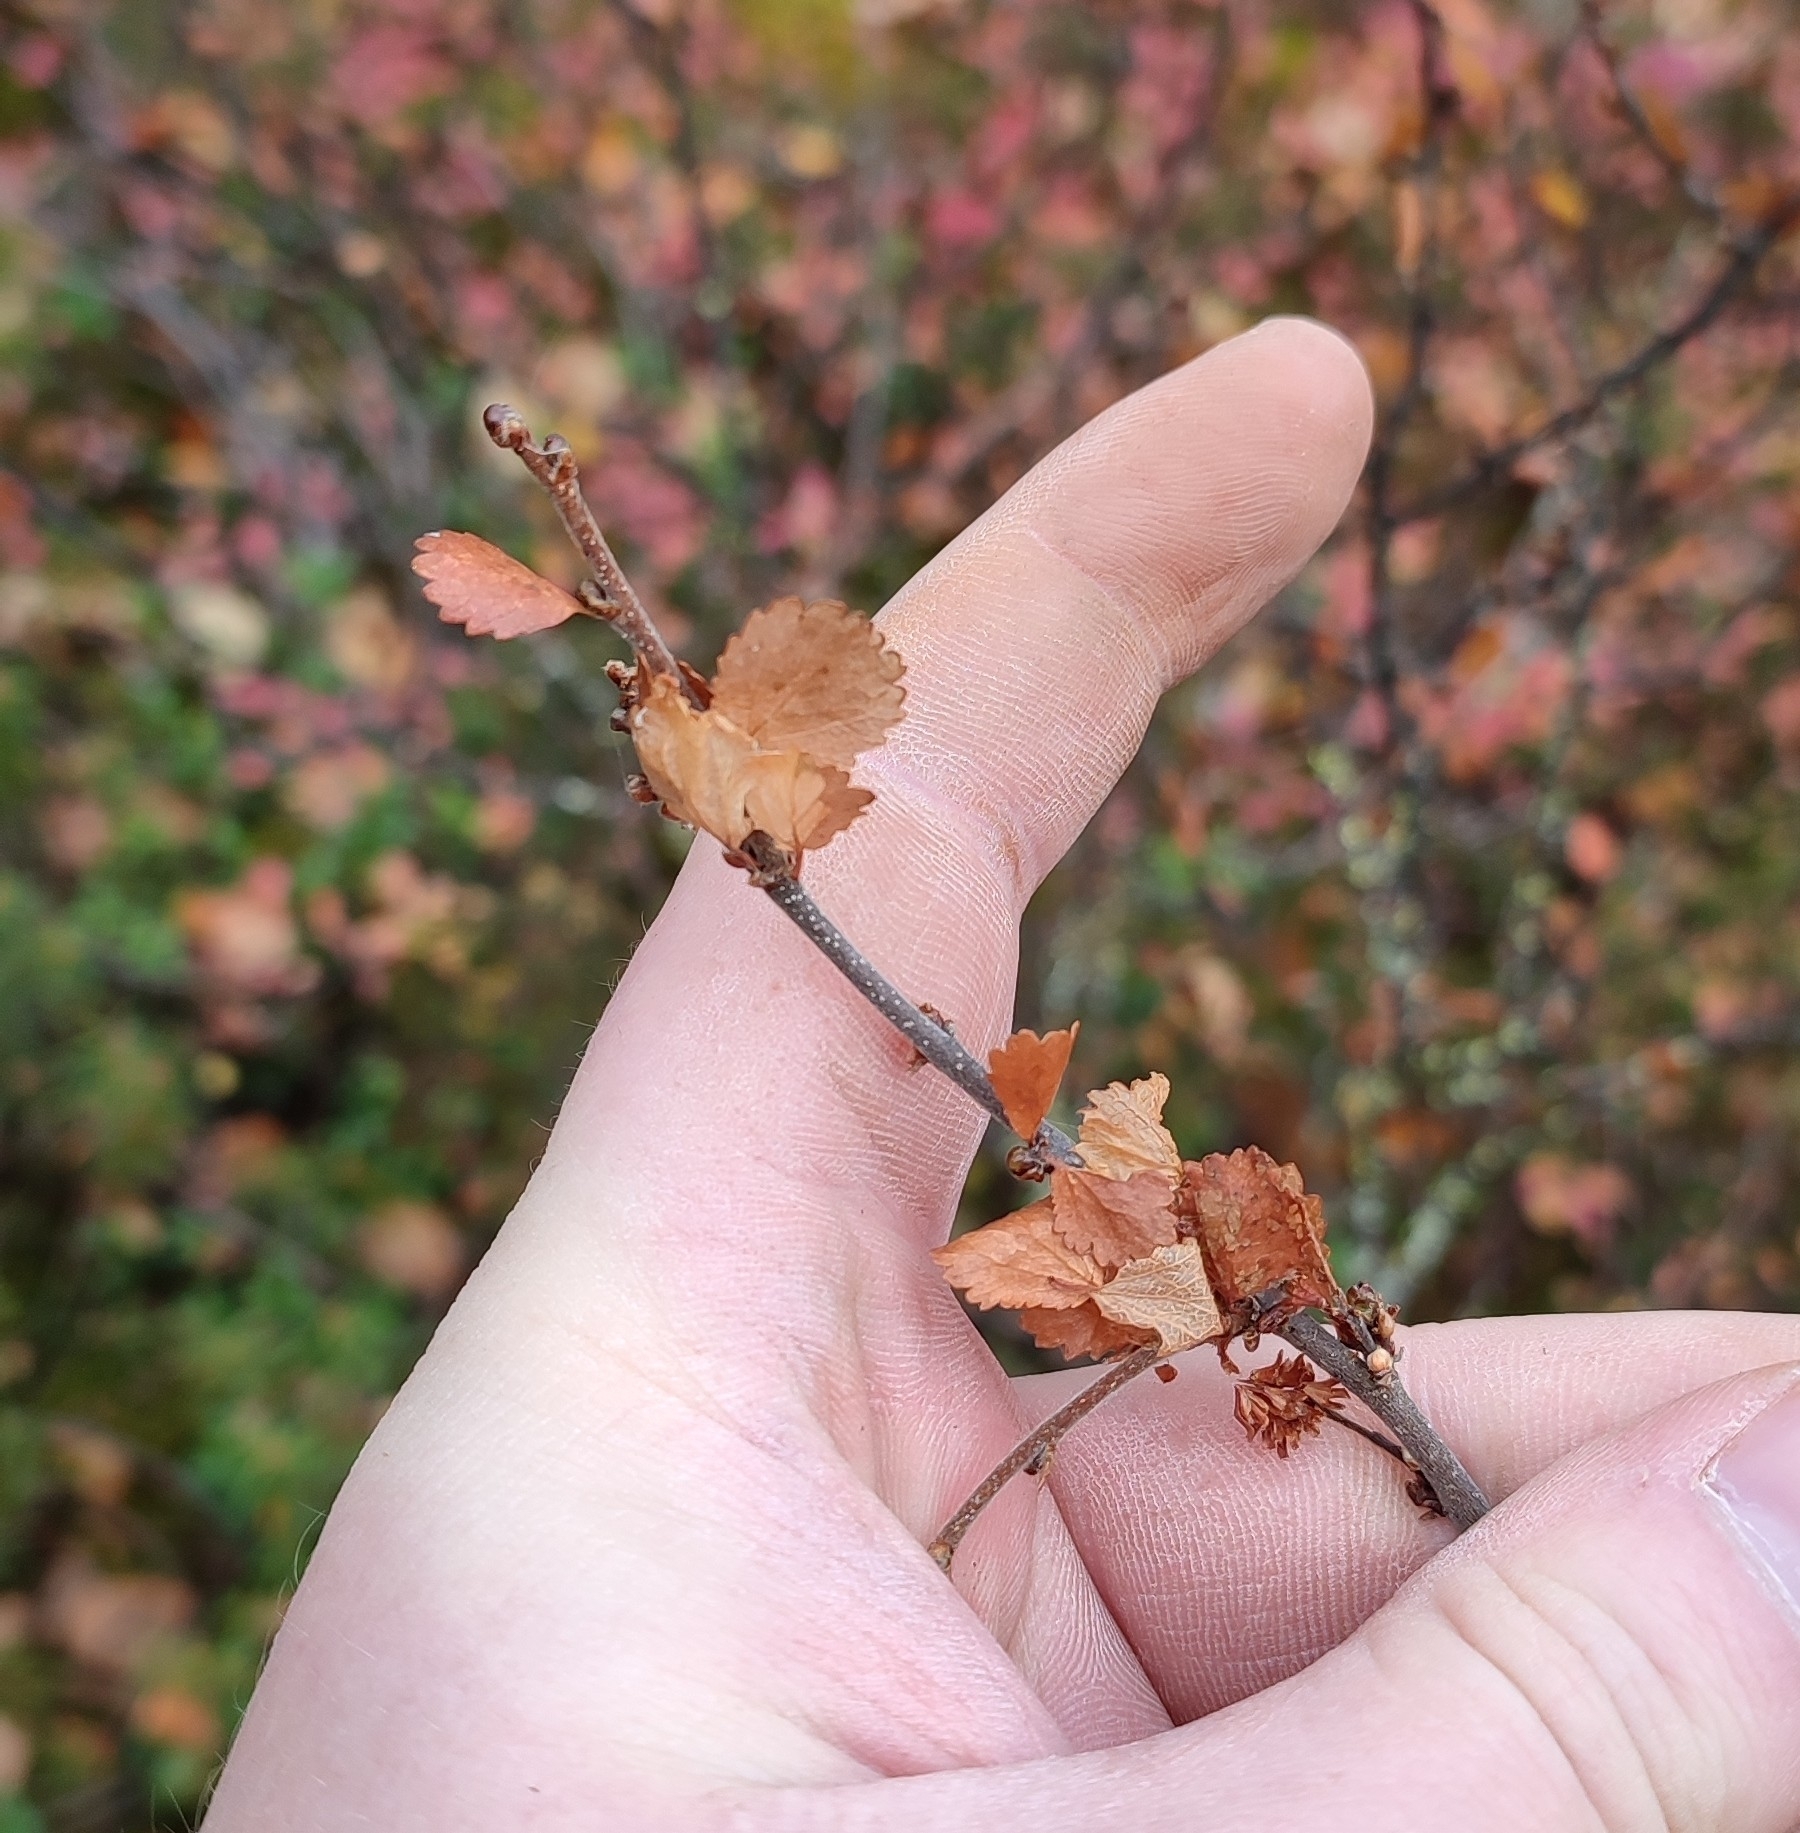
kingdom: Plantae
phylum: Tracheophyta
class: Magnoliopsida
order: Fagales
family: Betulaceae
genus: Betula
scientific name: Betula nana
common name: Arctic dwarf birch
